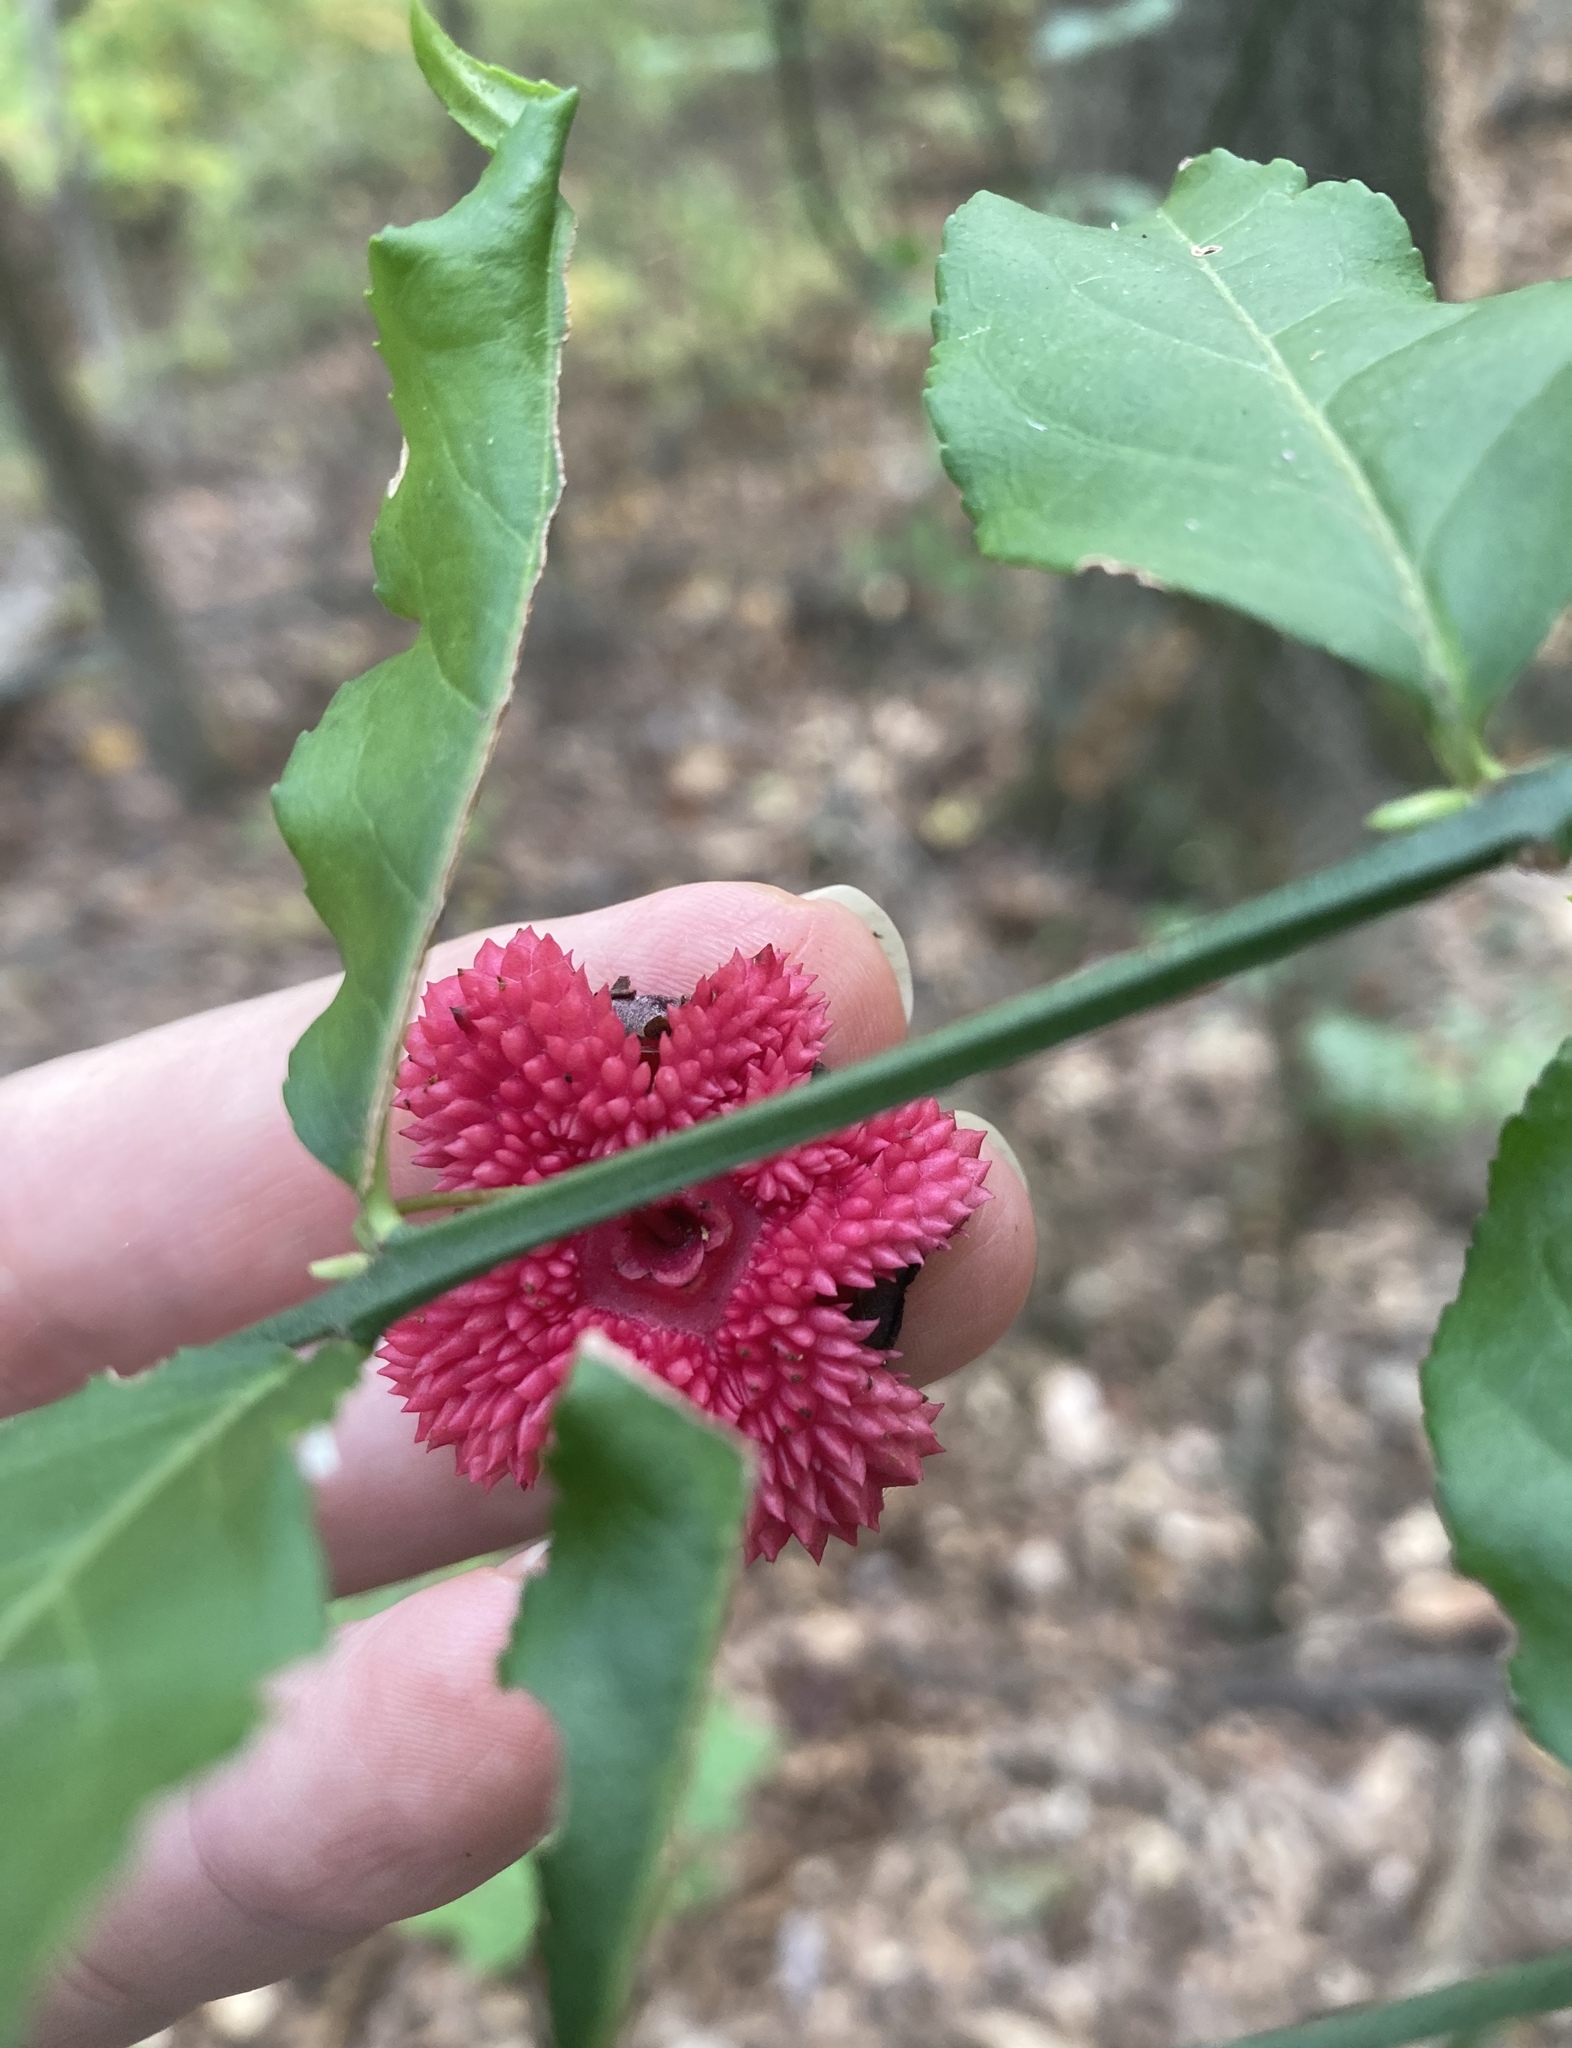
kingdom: Plantae
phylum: Tracheophyta
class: Magnoliopsida
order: Celastrales
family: Celastraceae
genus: Euonymus
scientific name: Euonymus americanus
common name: Bursting-heart
